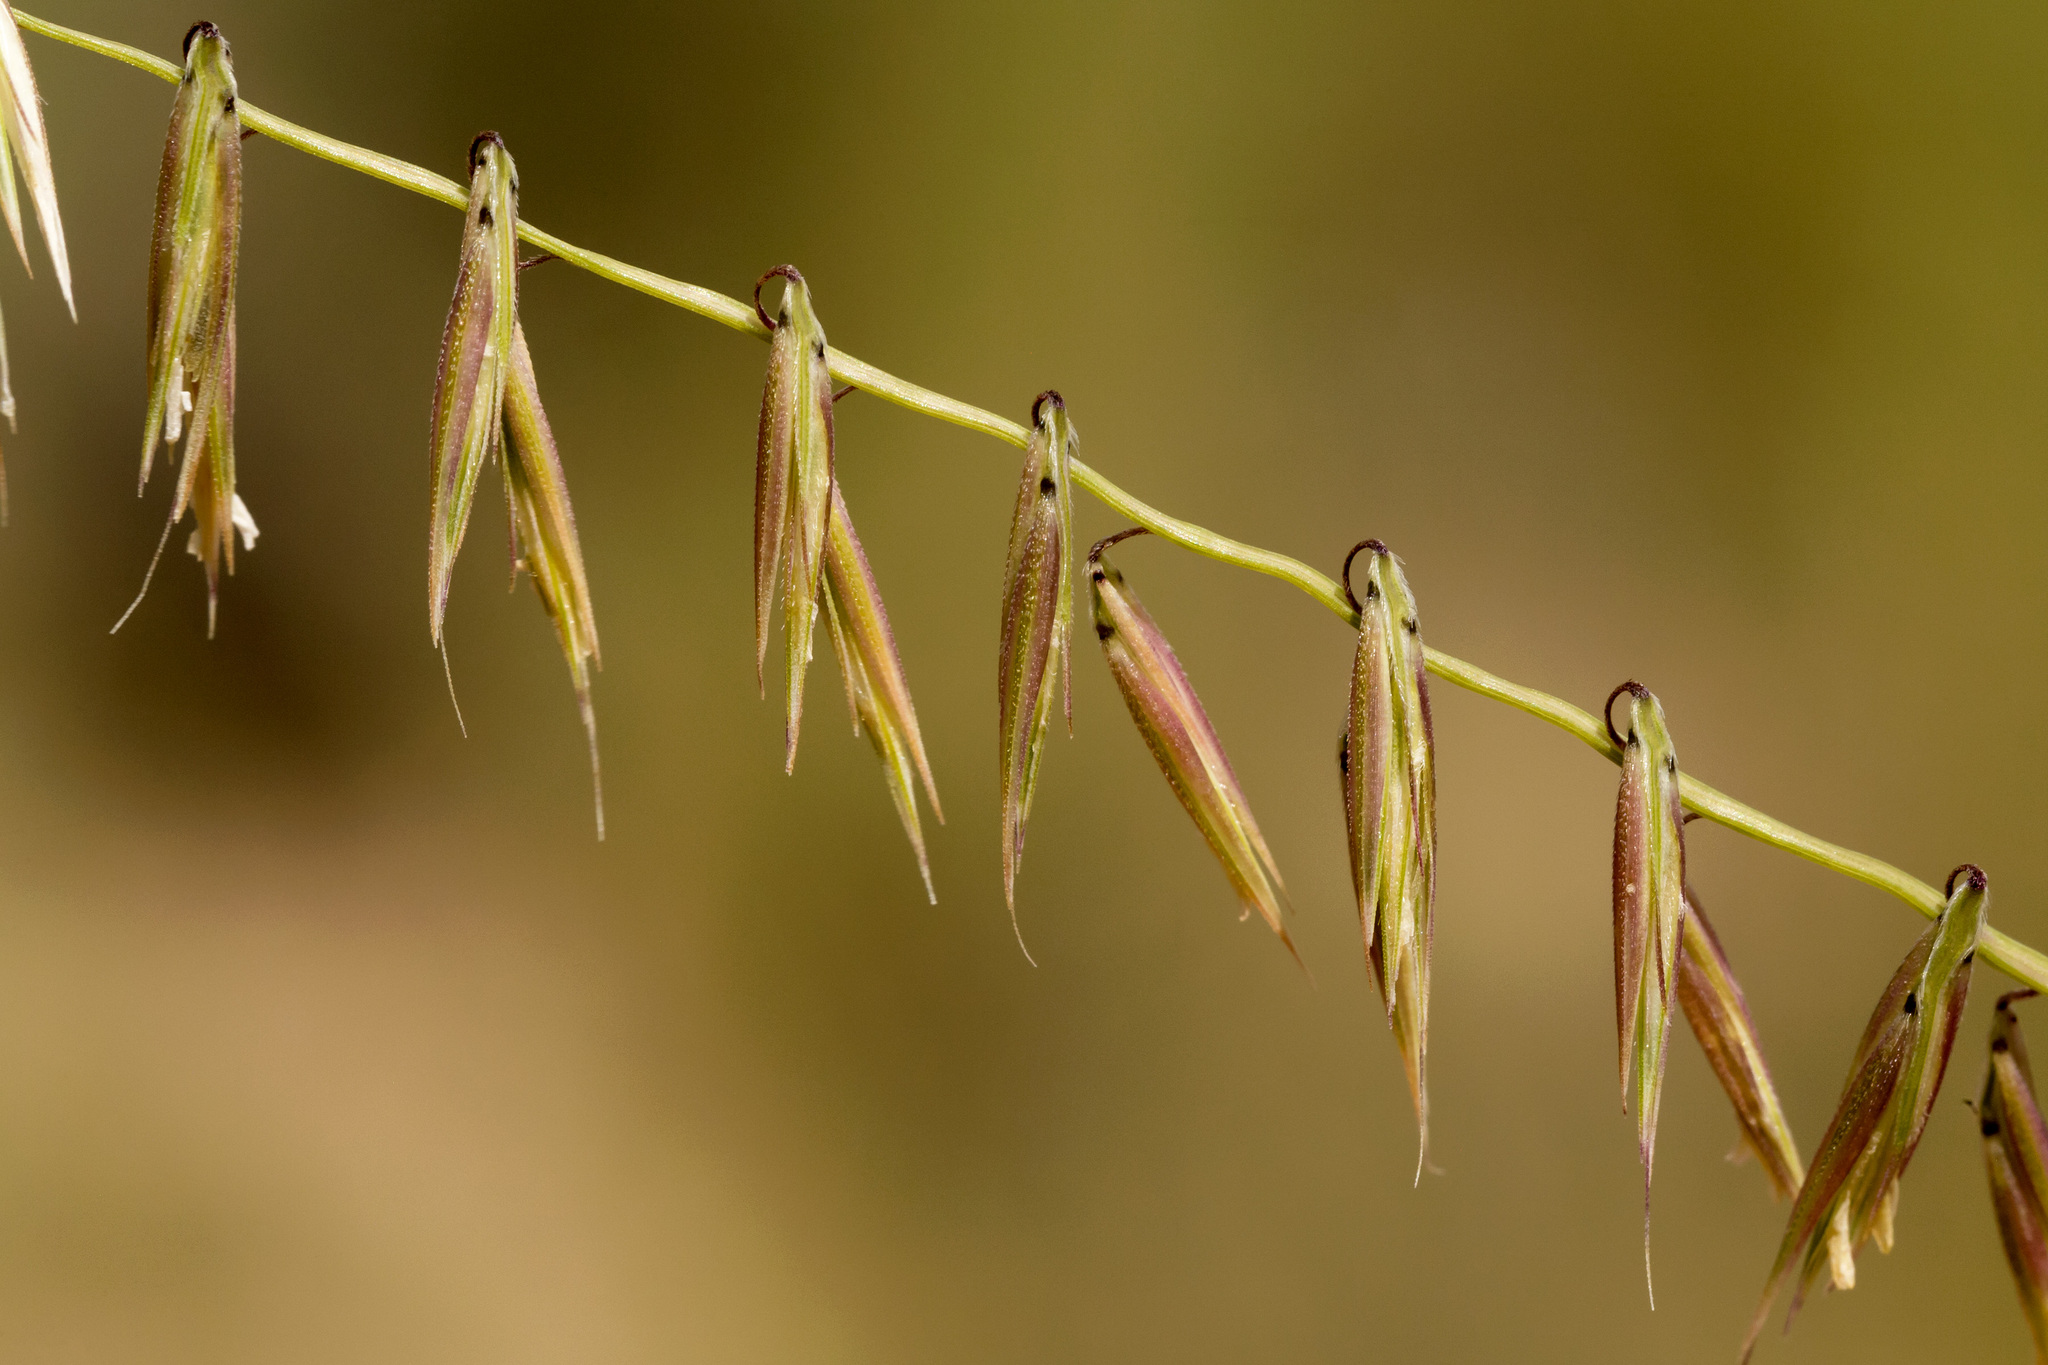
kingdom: Plantae
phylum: Tracheophyta
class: Liliopsida
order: Poales
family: Poaceae
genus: Bouteloua
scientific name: Bouteloua curtipendula
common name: Side-oats grama
